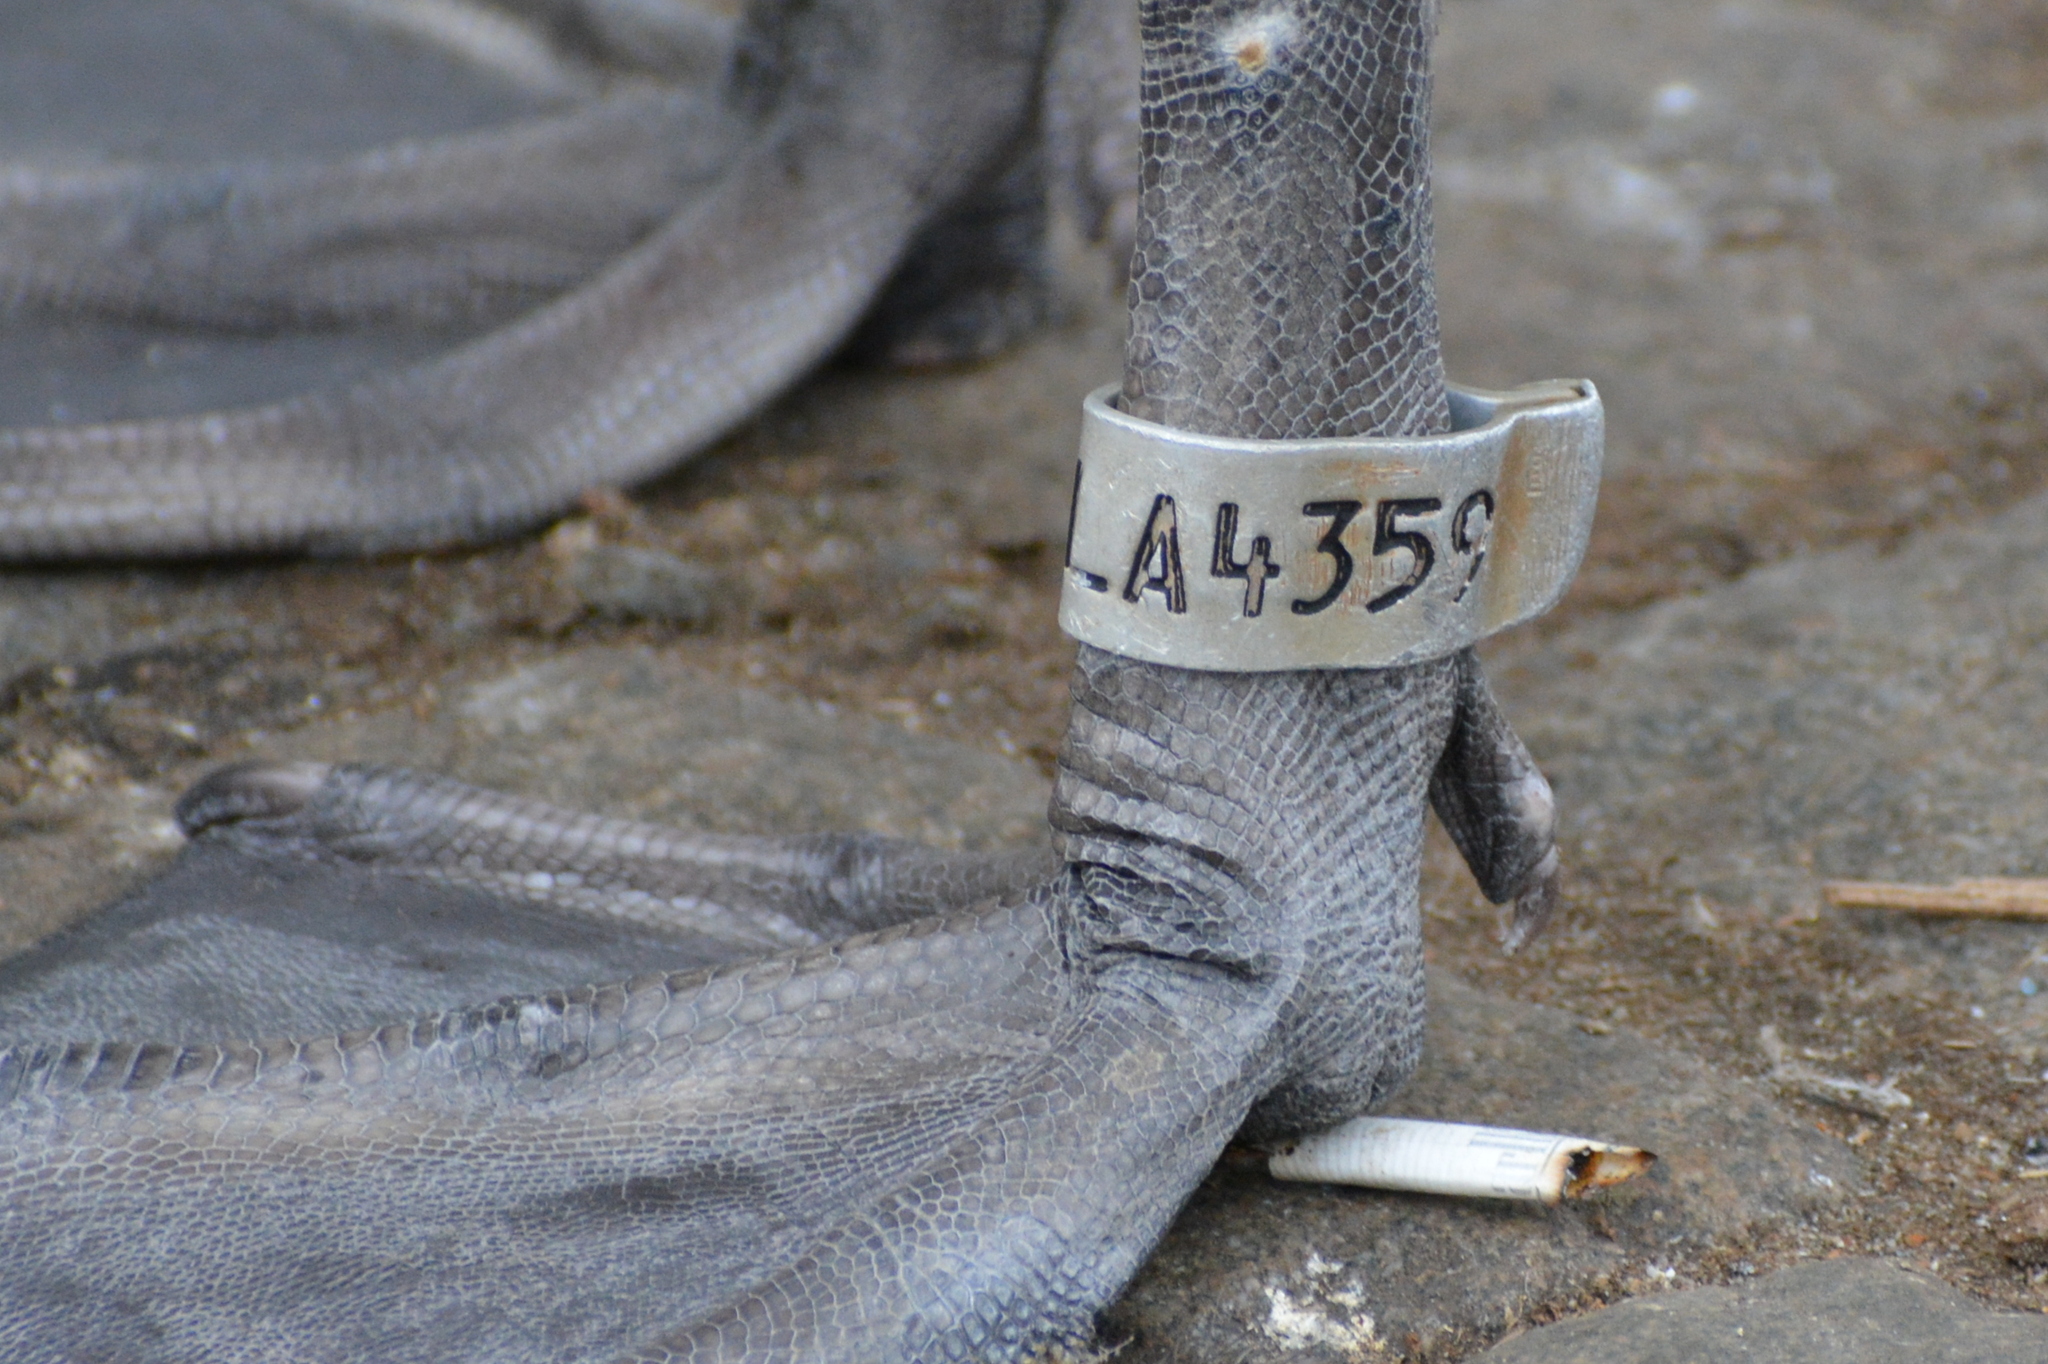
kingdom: Animalia
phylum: Chordata
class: Aves
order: Anseriformes
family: Anatidae
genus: Cygnus
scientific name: Cygnus olor
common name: Mute swan
